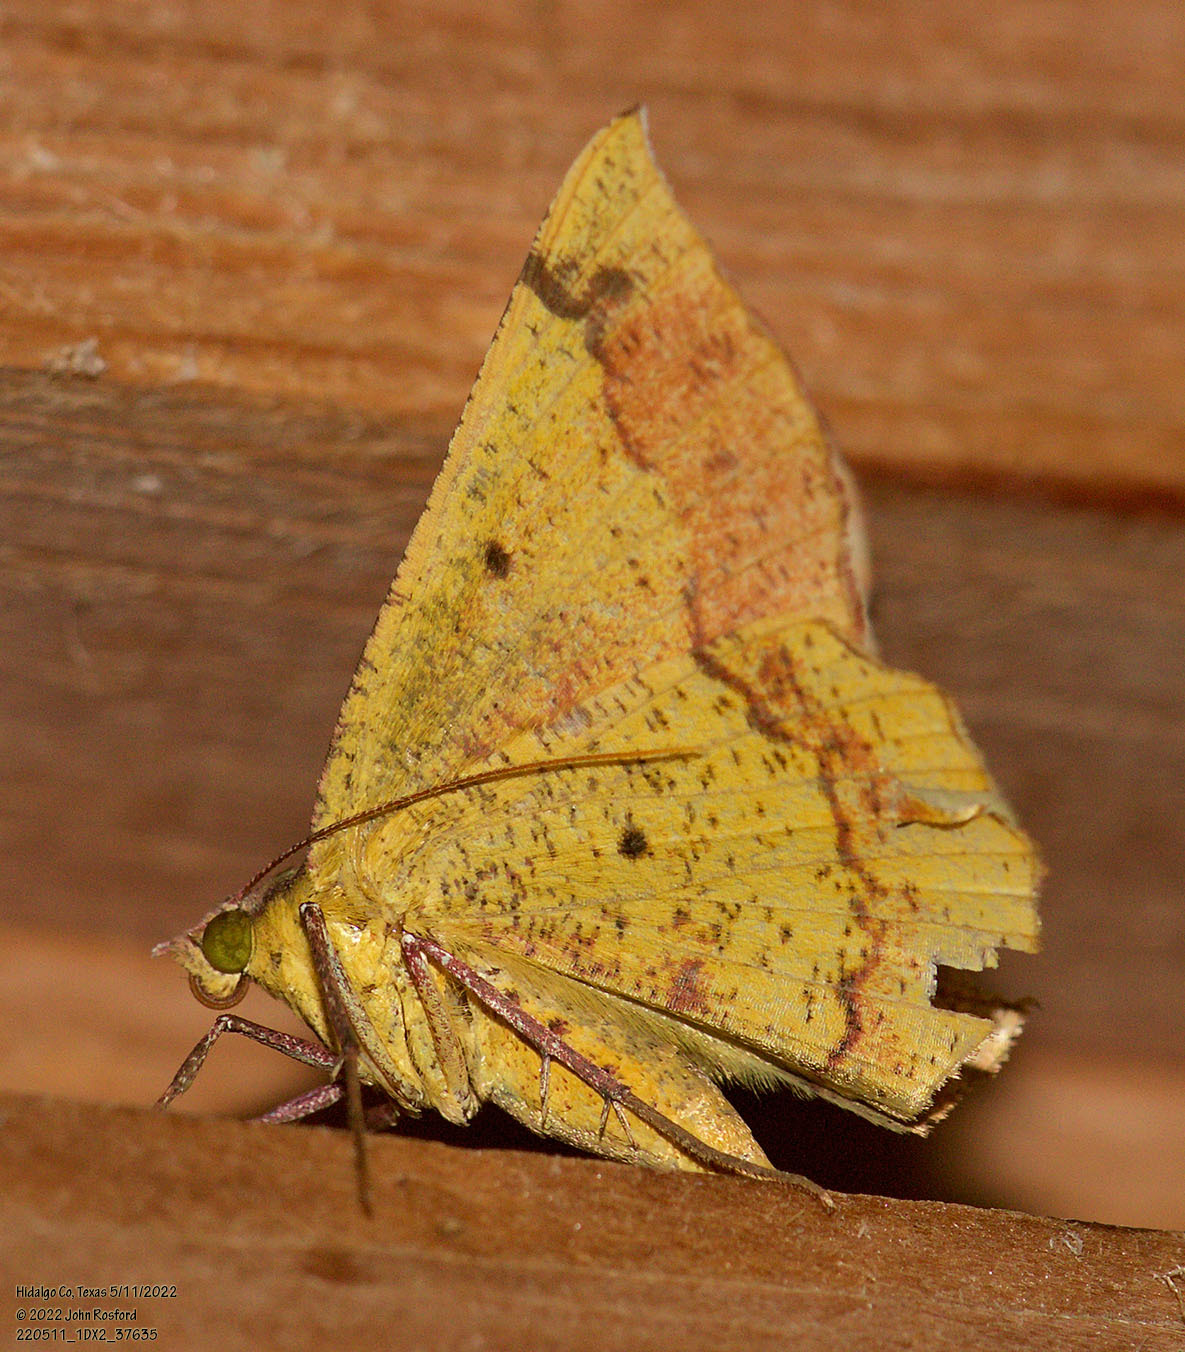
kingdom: Animalia
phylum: Arthropoda
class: Insecta
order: Lepidoptera
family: Geometridae
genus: Erastria
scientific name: Erastria decrepitaria
